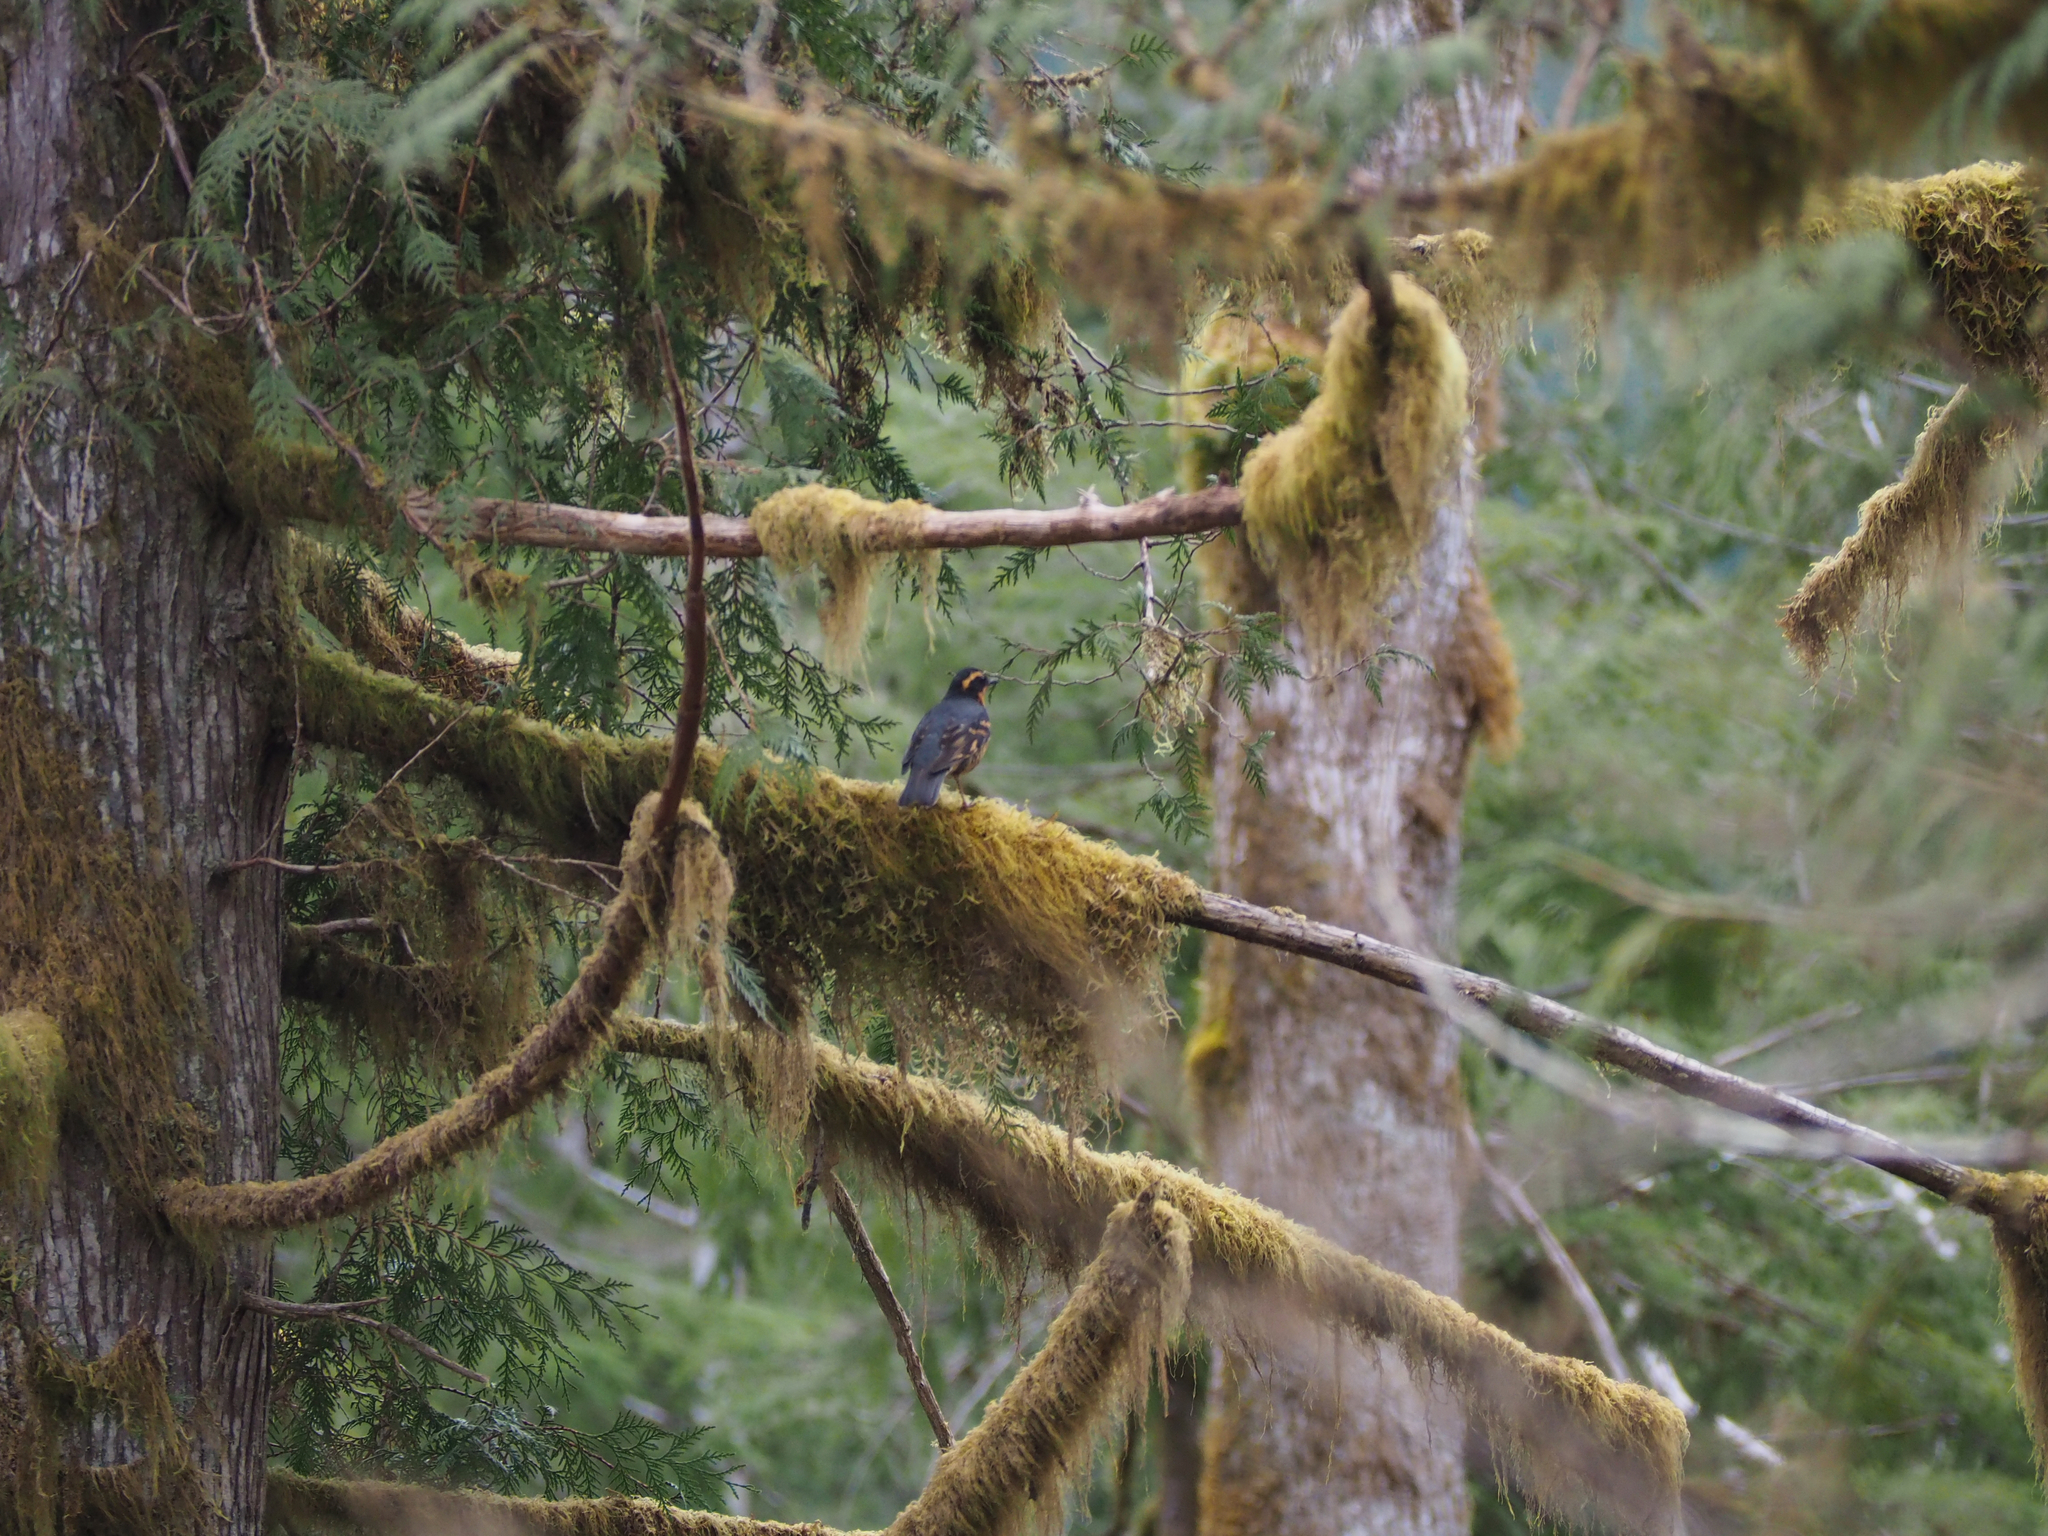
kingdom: Animalia
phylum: Chordata
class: Aves
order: Passeriformes
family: Turdidae
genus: Ixoreus
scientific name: Ixoreus naevius
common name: Varied thrush
